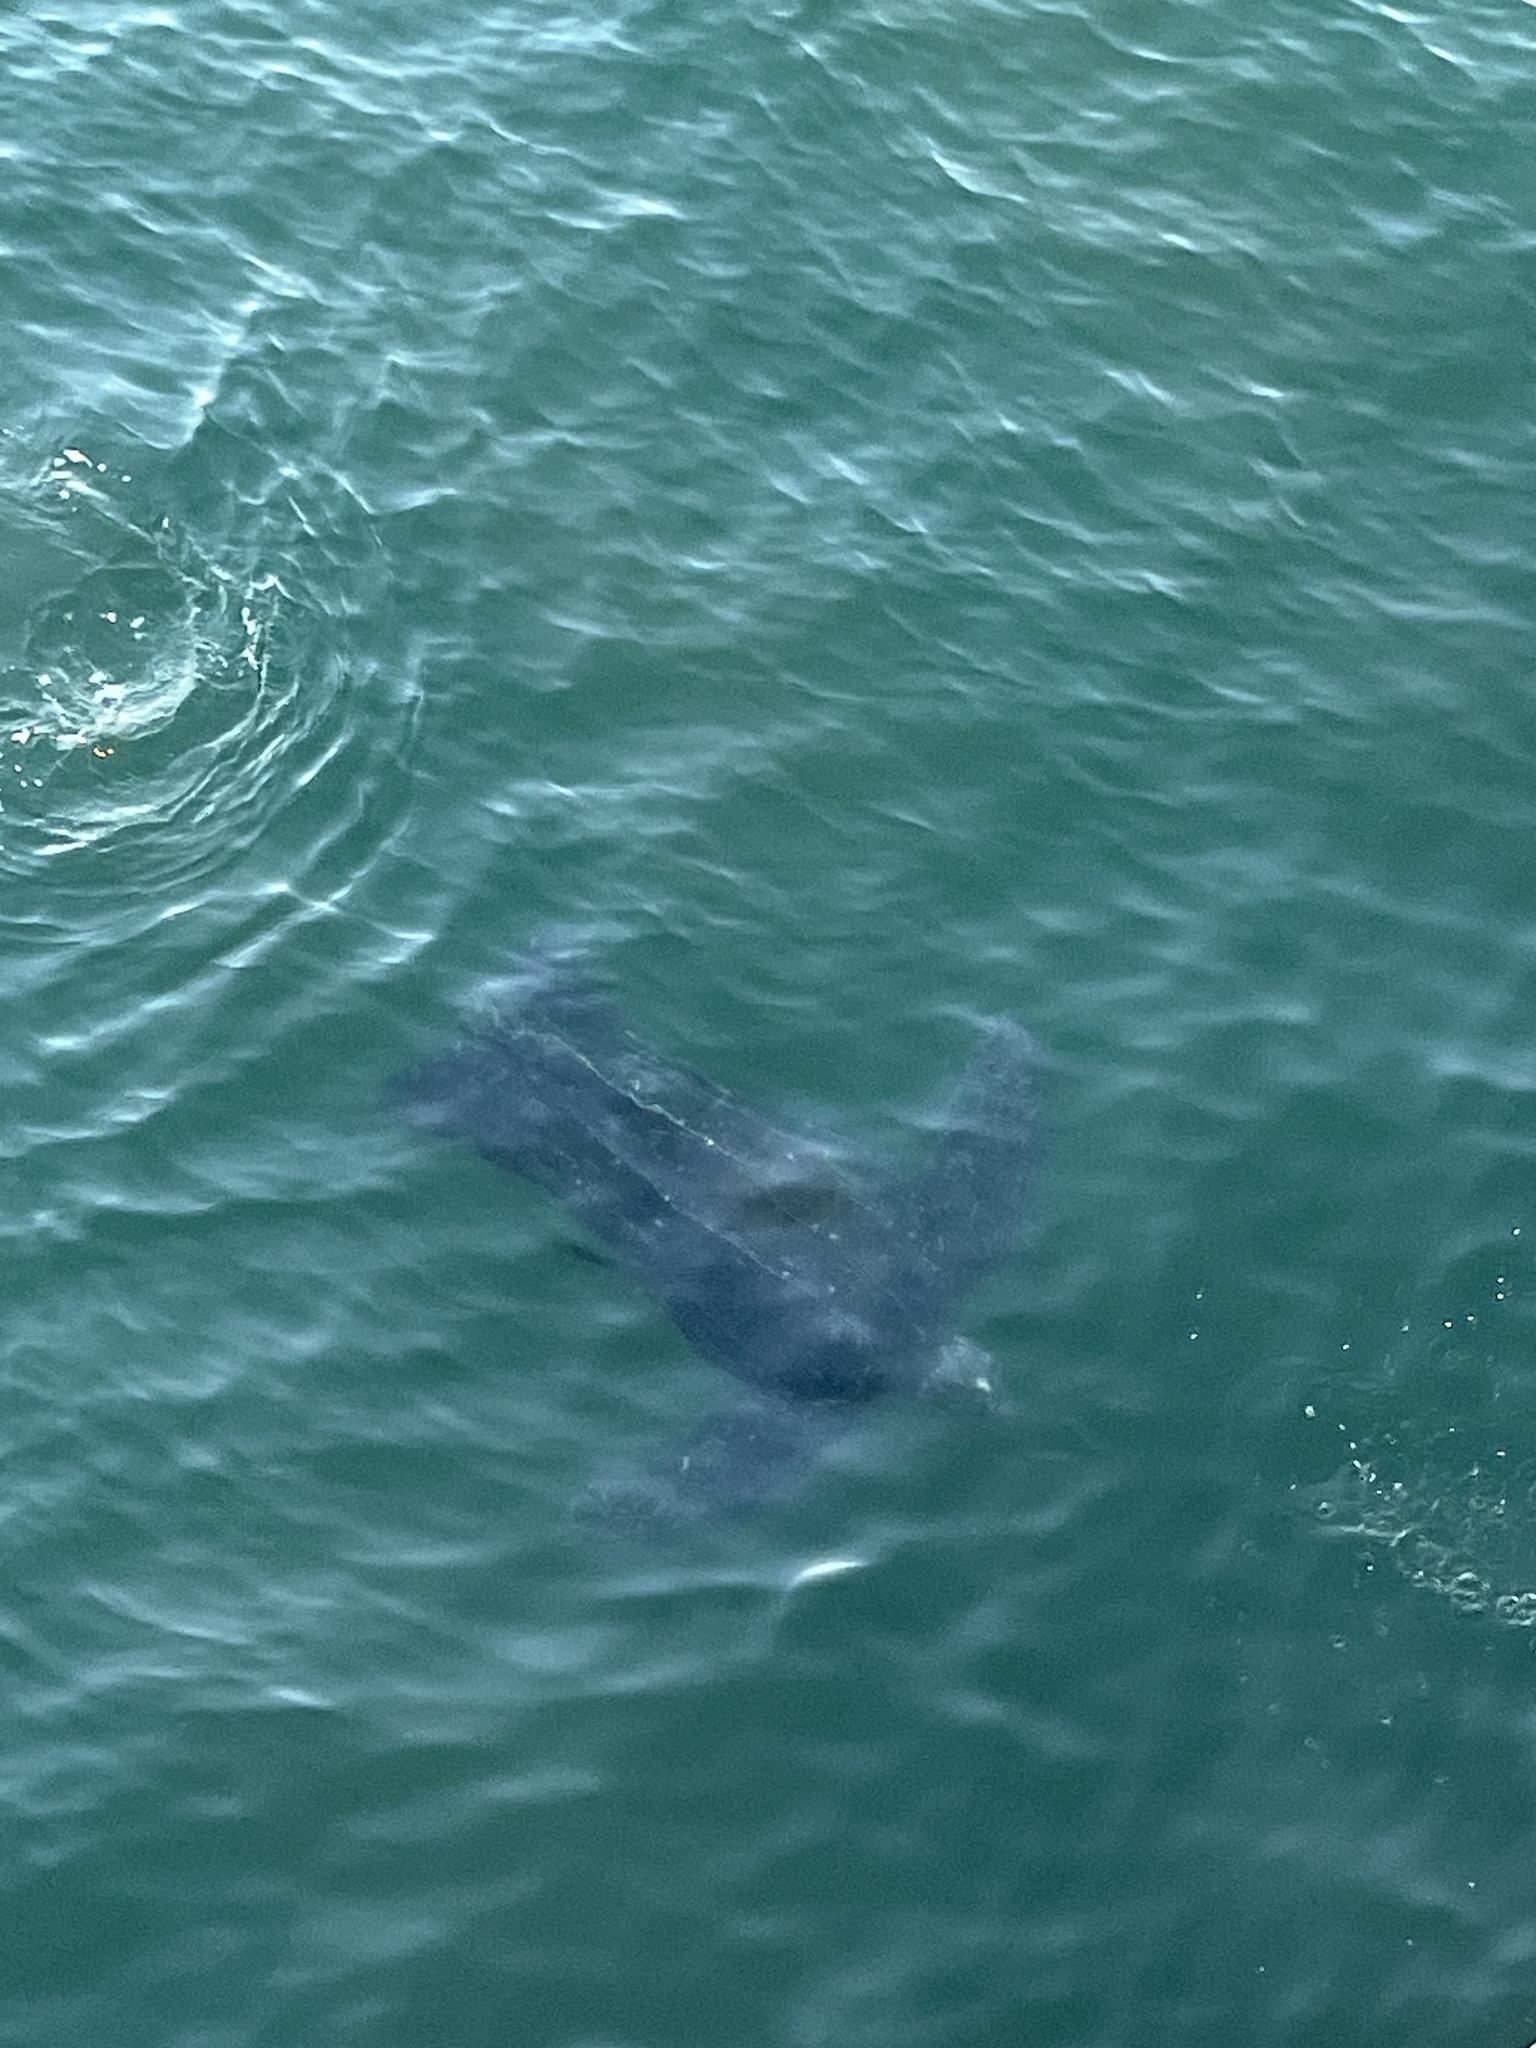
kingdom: Animalia
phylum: Chordata
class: Testudines
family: Dermochelyidae
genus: Dermochelys
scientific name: Dermochelys coriacea
